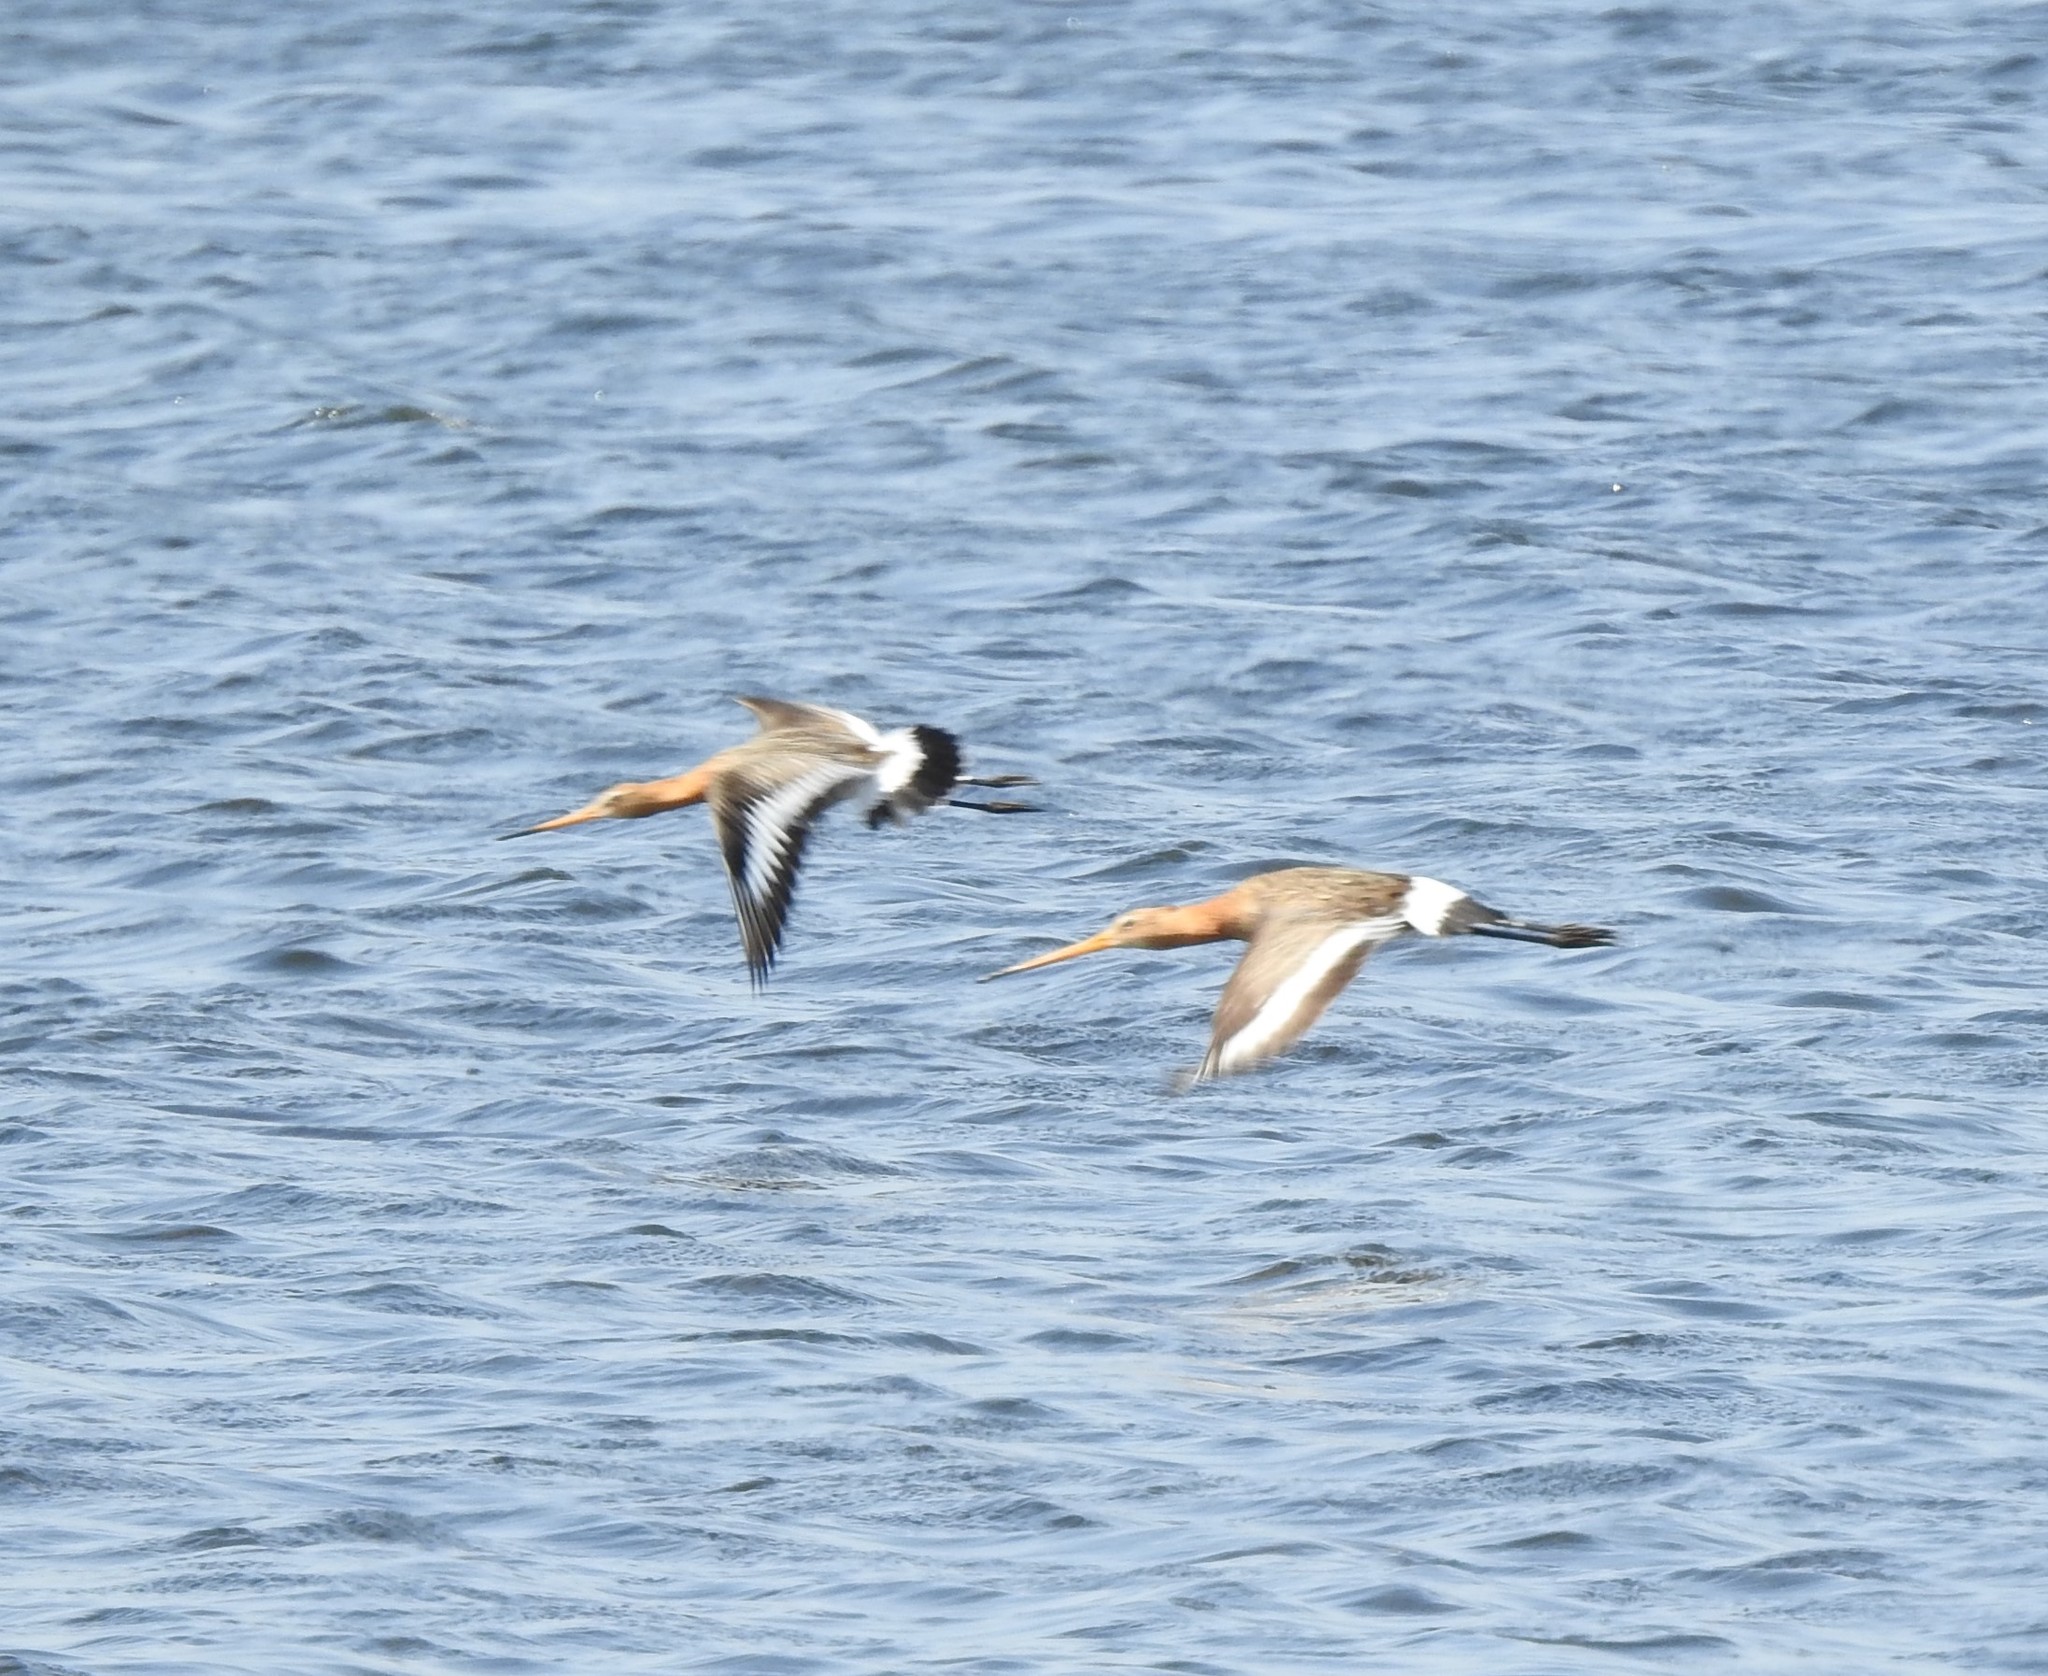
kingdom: Animalia
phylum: Chordata
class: Aves
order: Charadriiformes
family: Scolopacidae
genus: Limosa
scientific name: Limosa limosa
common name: Black-tailed godwit
